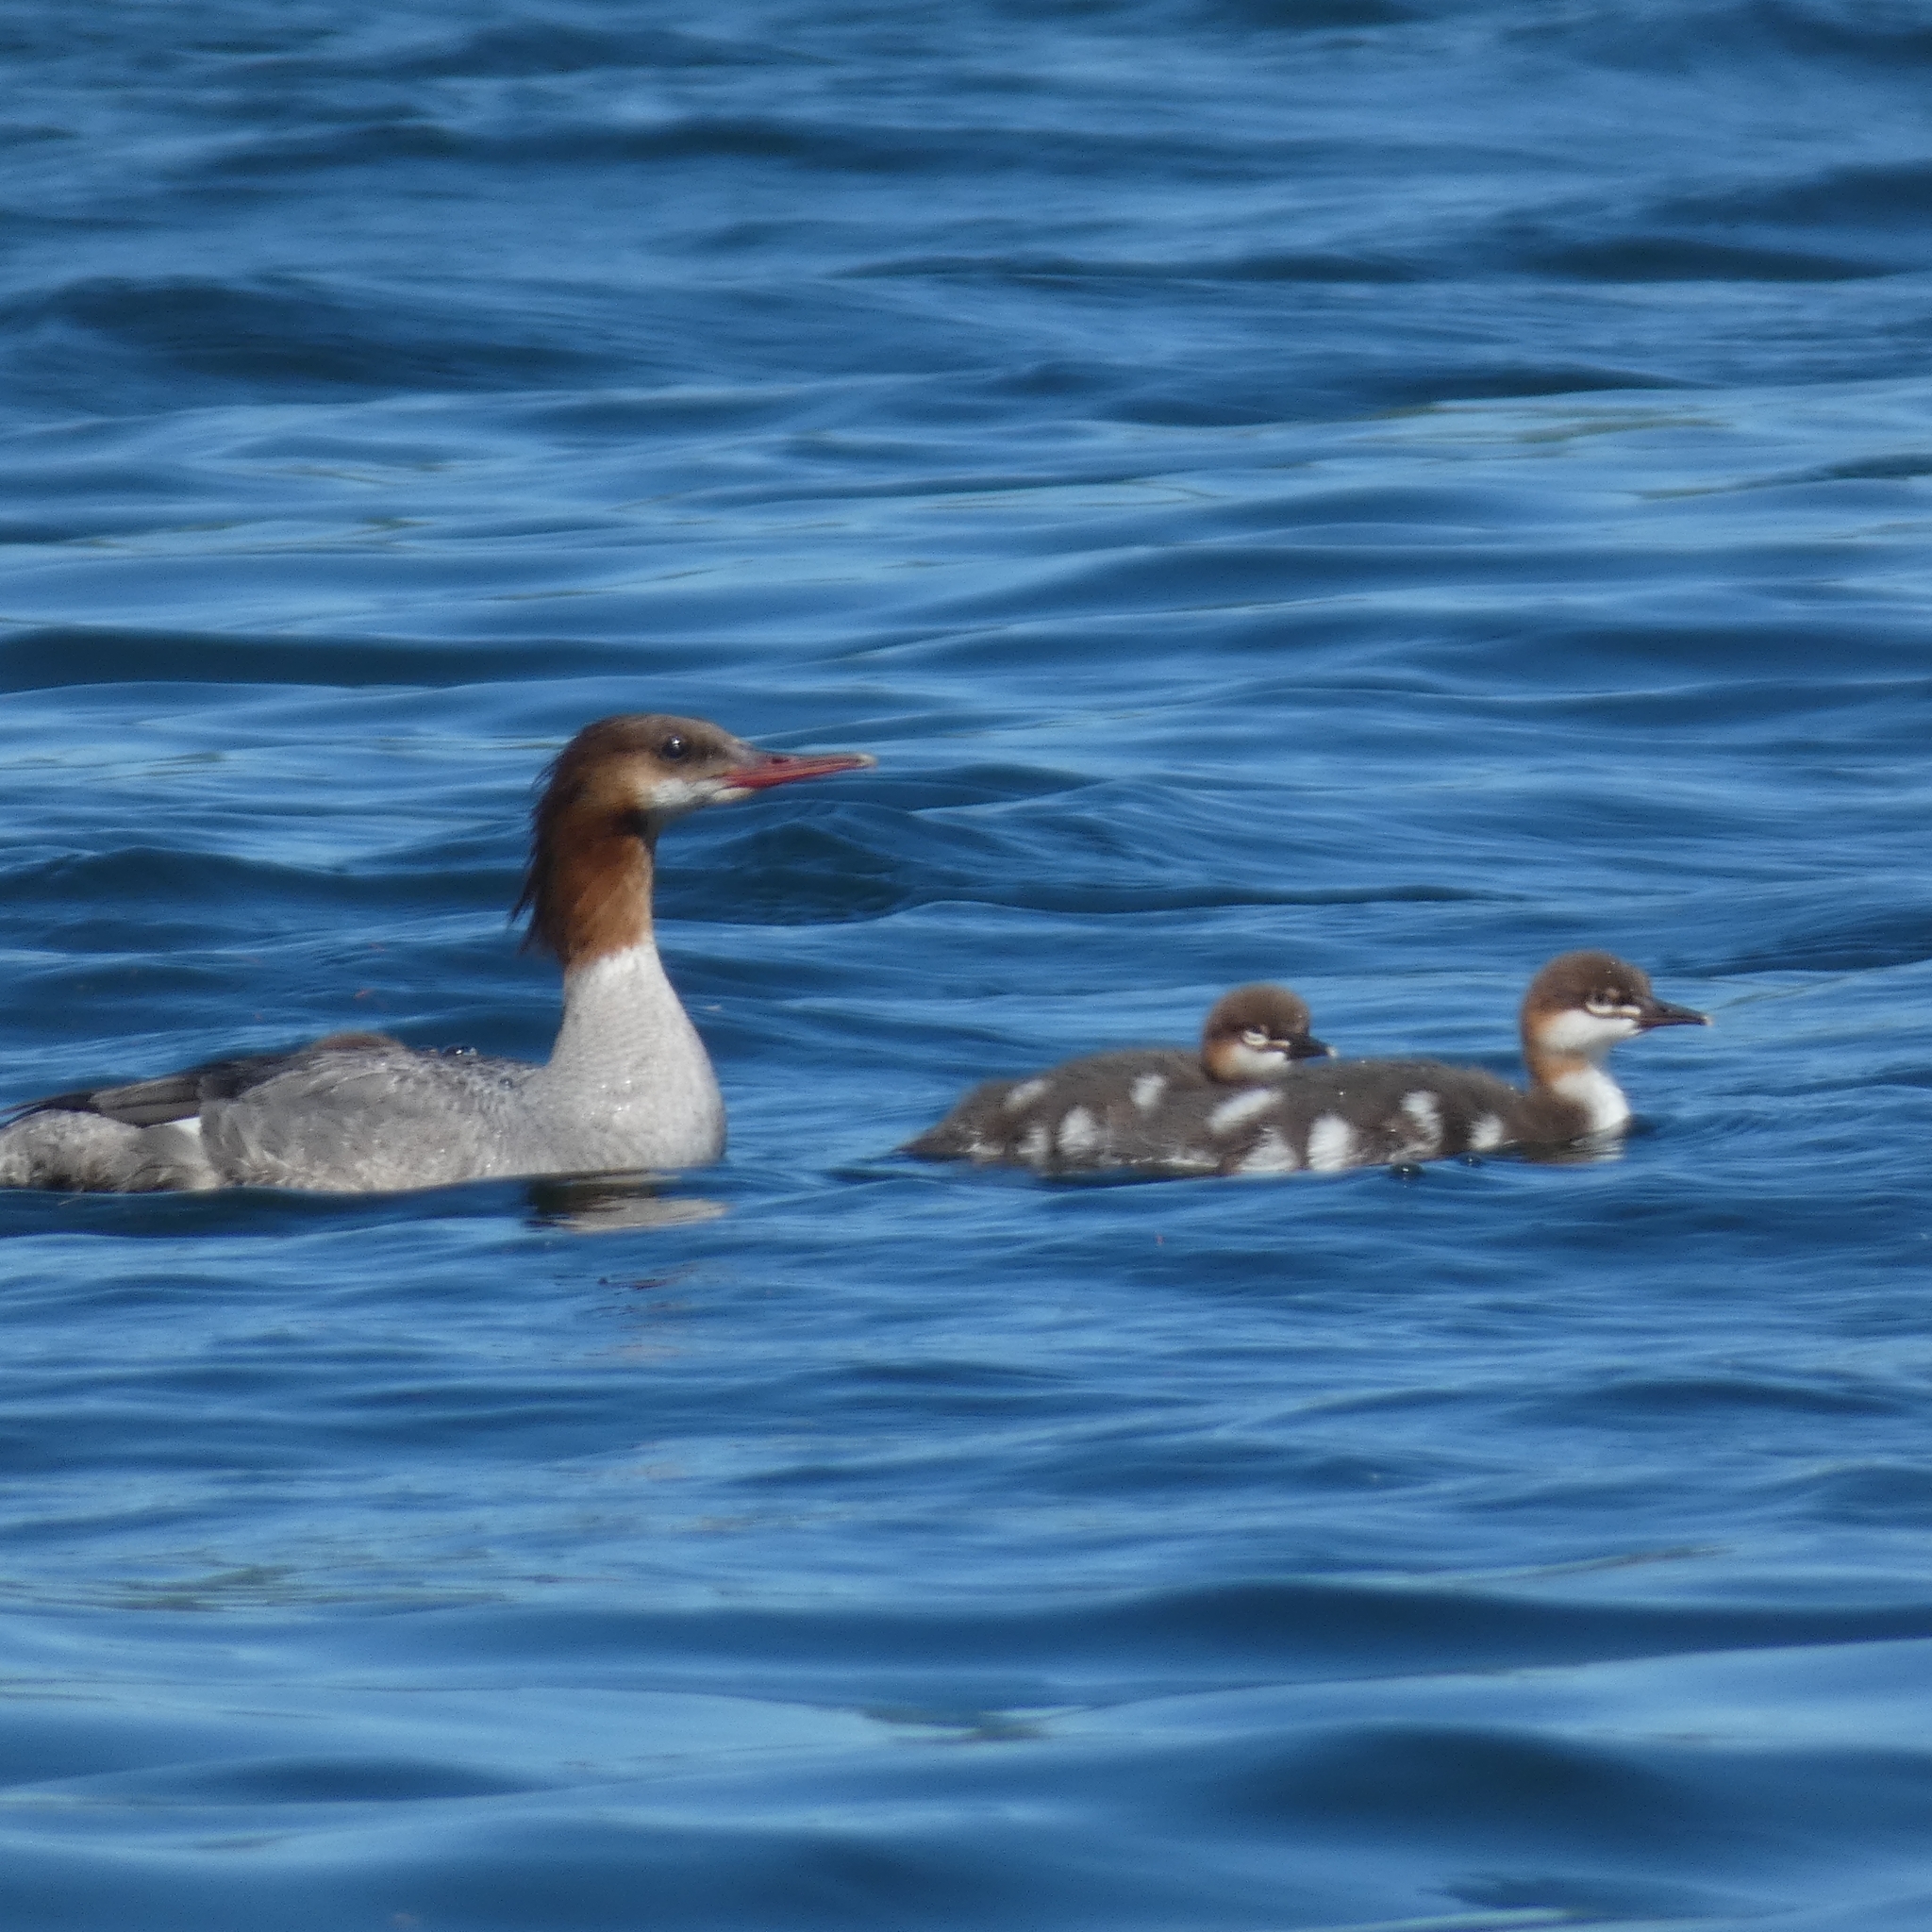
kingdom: Animalia
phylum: Chordata
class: Aves
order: Anseriformes
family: Anatidae
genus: Mergus
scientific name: Mergus merganser
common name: Common merganser
